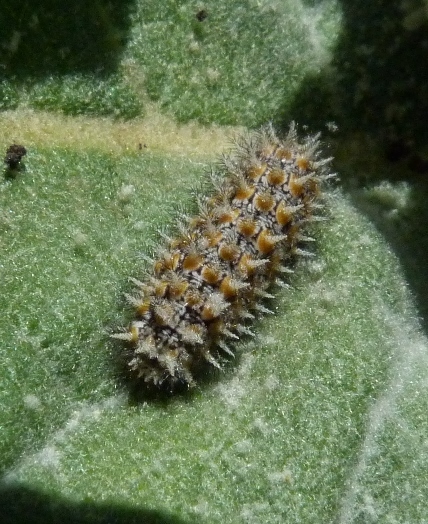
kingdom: Animalia
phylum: Arthropoda
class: Insecta
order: Lepidoptera
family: Nymphalidae
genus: Melitaea
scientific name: Melitaea trivia
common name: Lesser spotted fritillary
